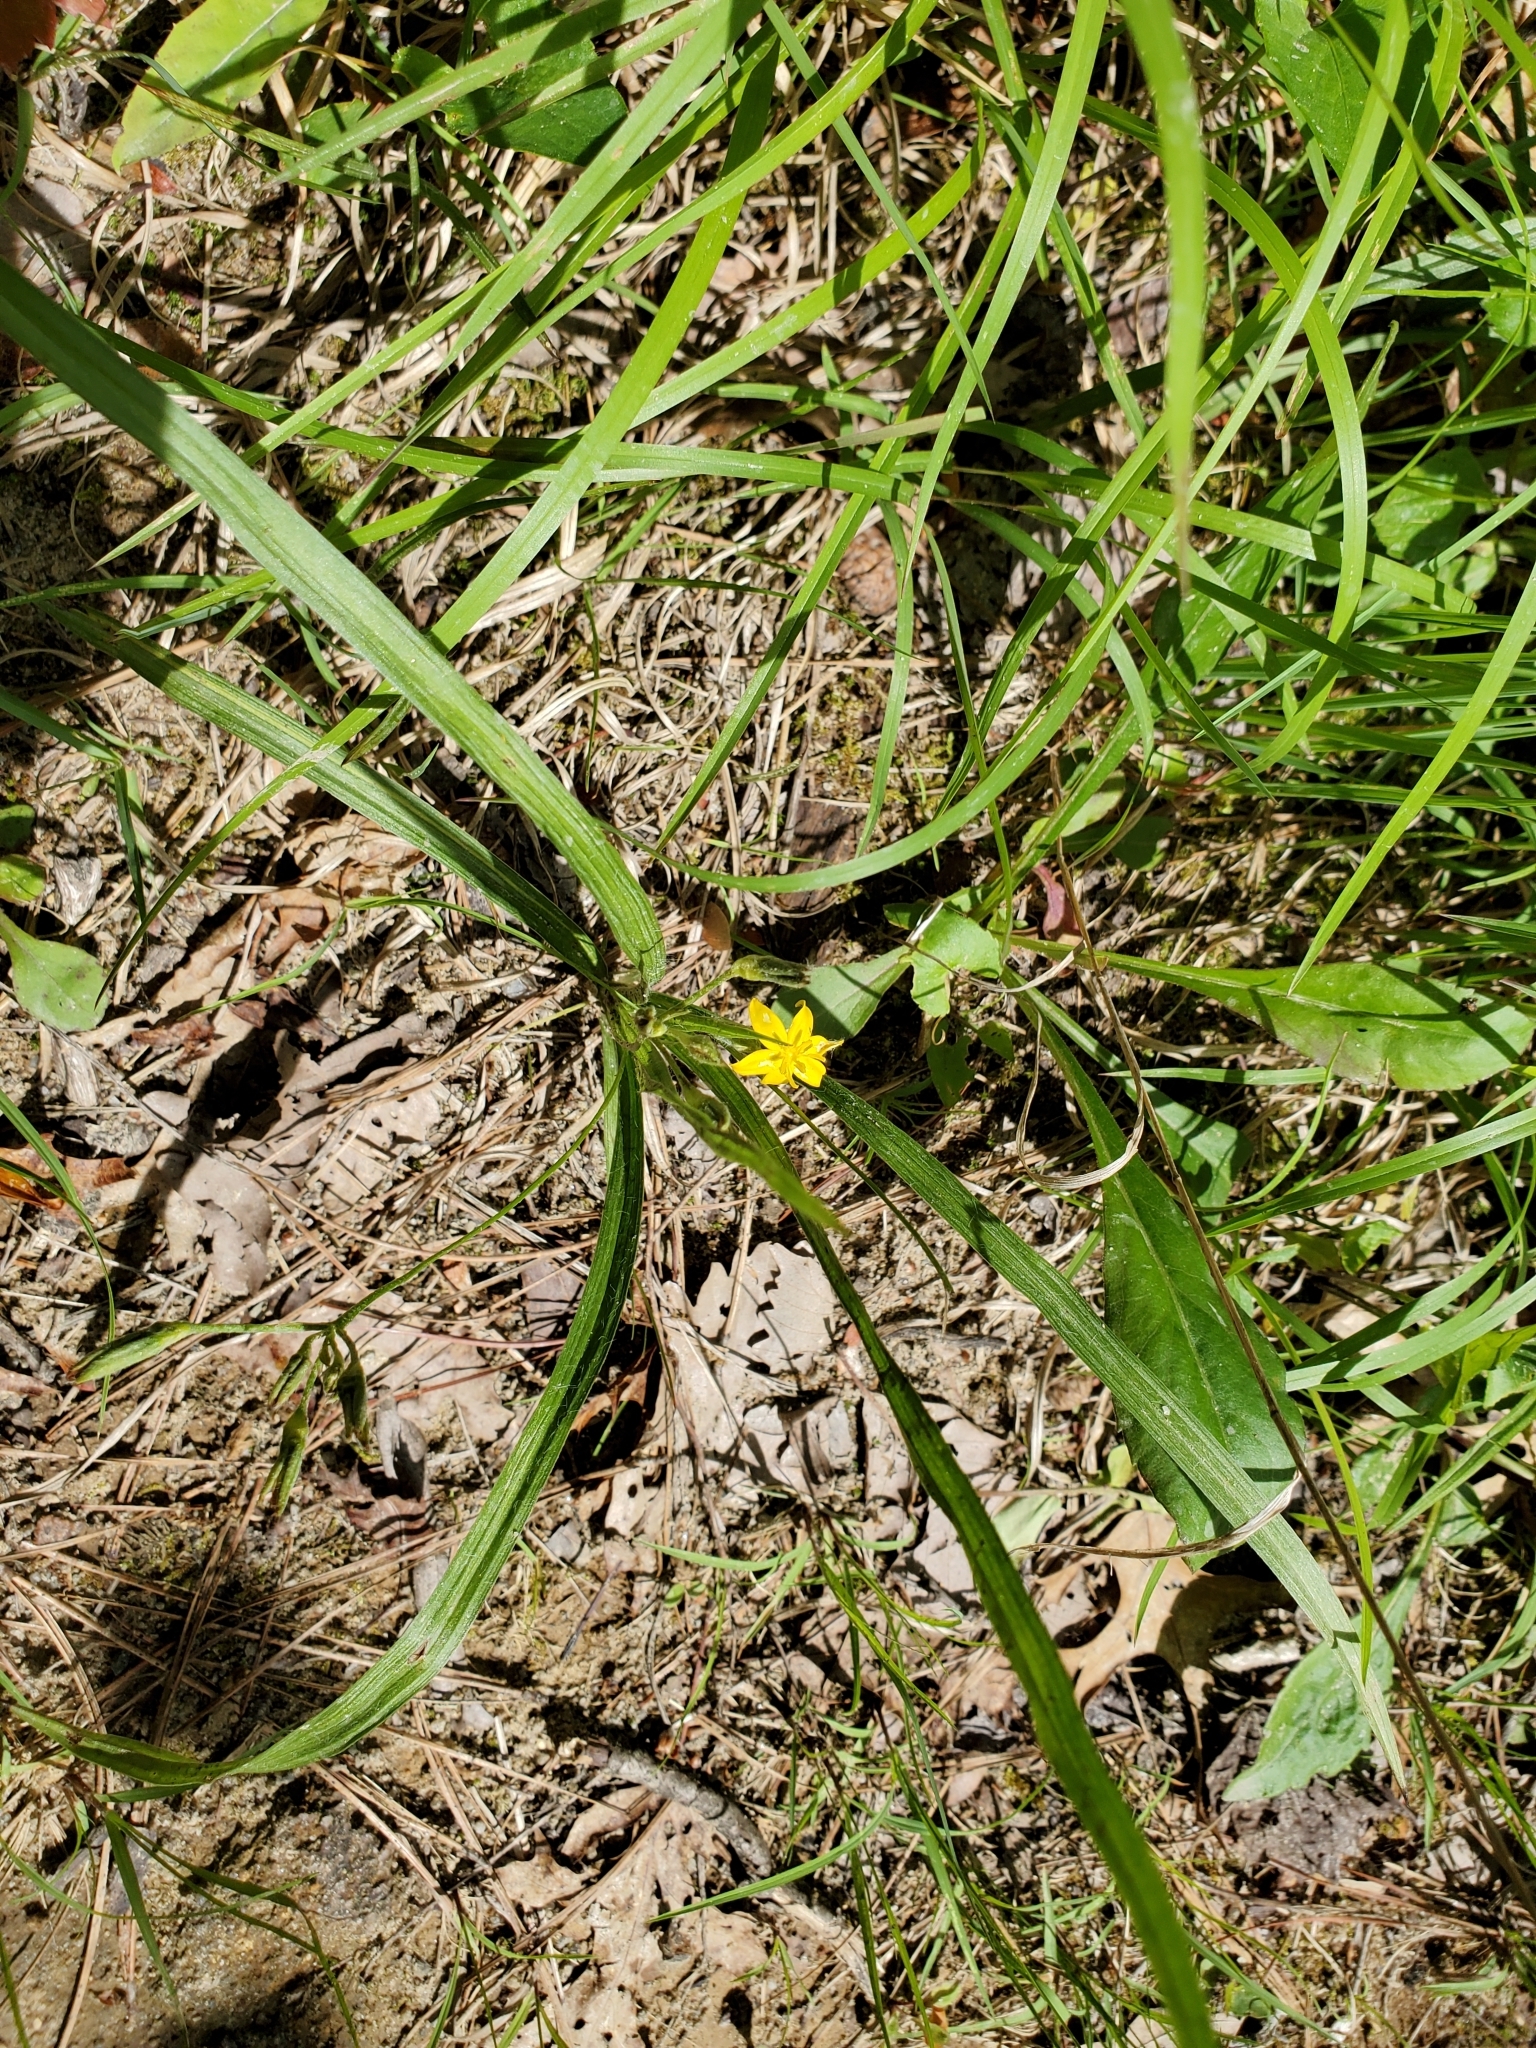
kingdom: Plantae
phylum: Tracheophyta
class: Liliopsida
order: Asparagales
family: Hypoxidaceae
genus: Hypoxis
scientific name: Hypoxis hirsuta
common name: Common goldstar
